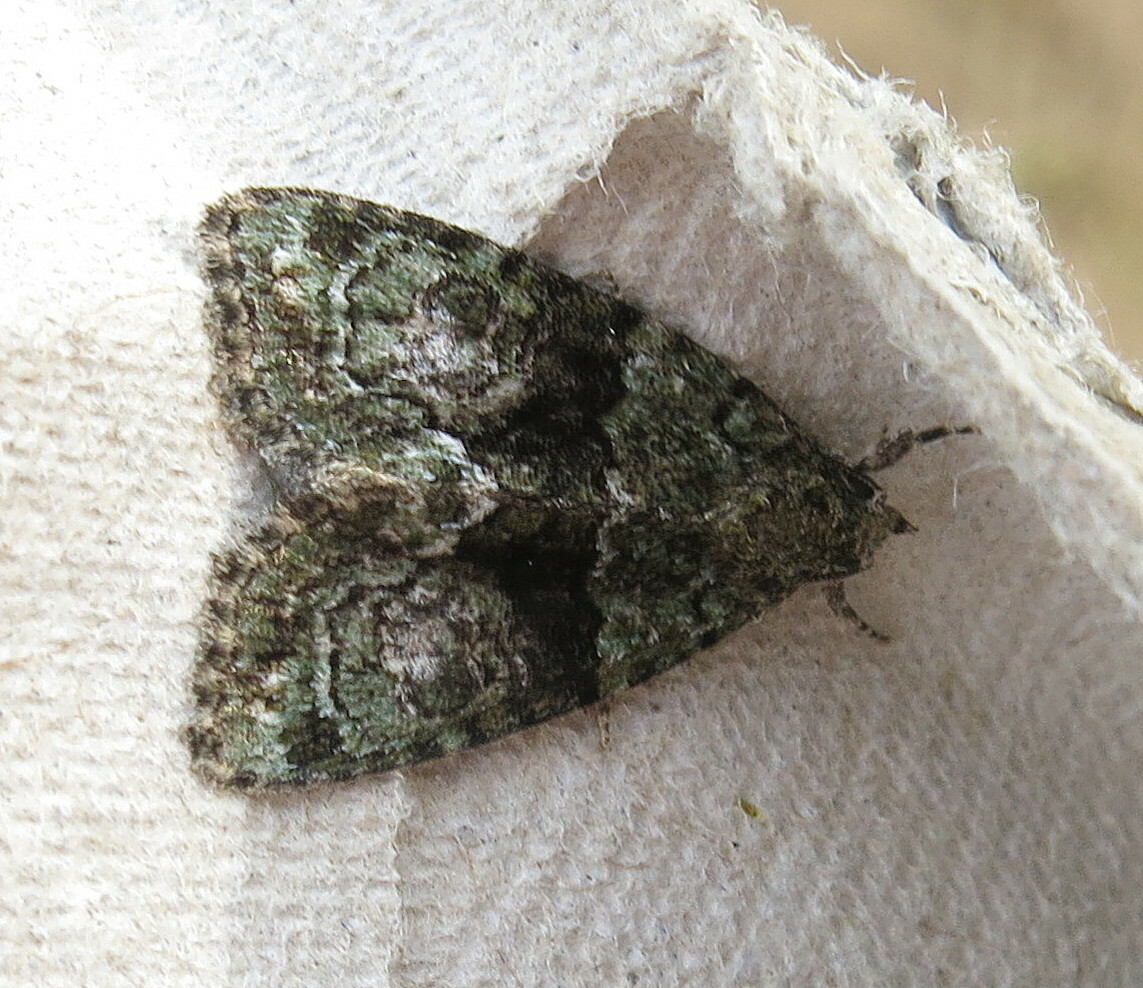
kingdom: Animalia
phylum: Arthropoda
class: Insecta
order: Lepidoptera
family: Noctuidae
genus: Cryphia
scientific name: Cryphia algae
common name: Tree-lichen beauty
